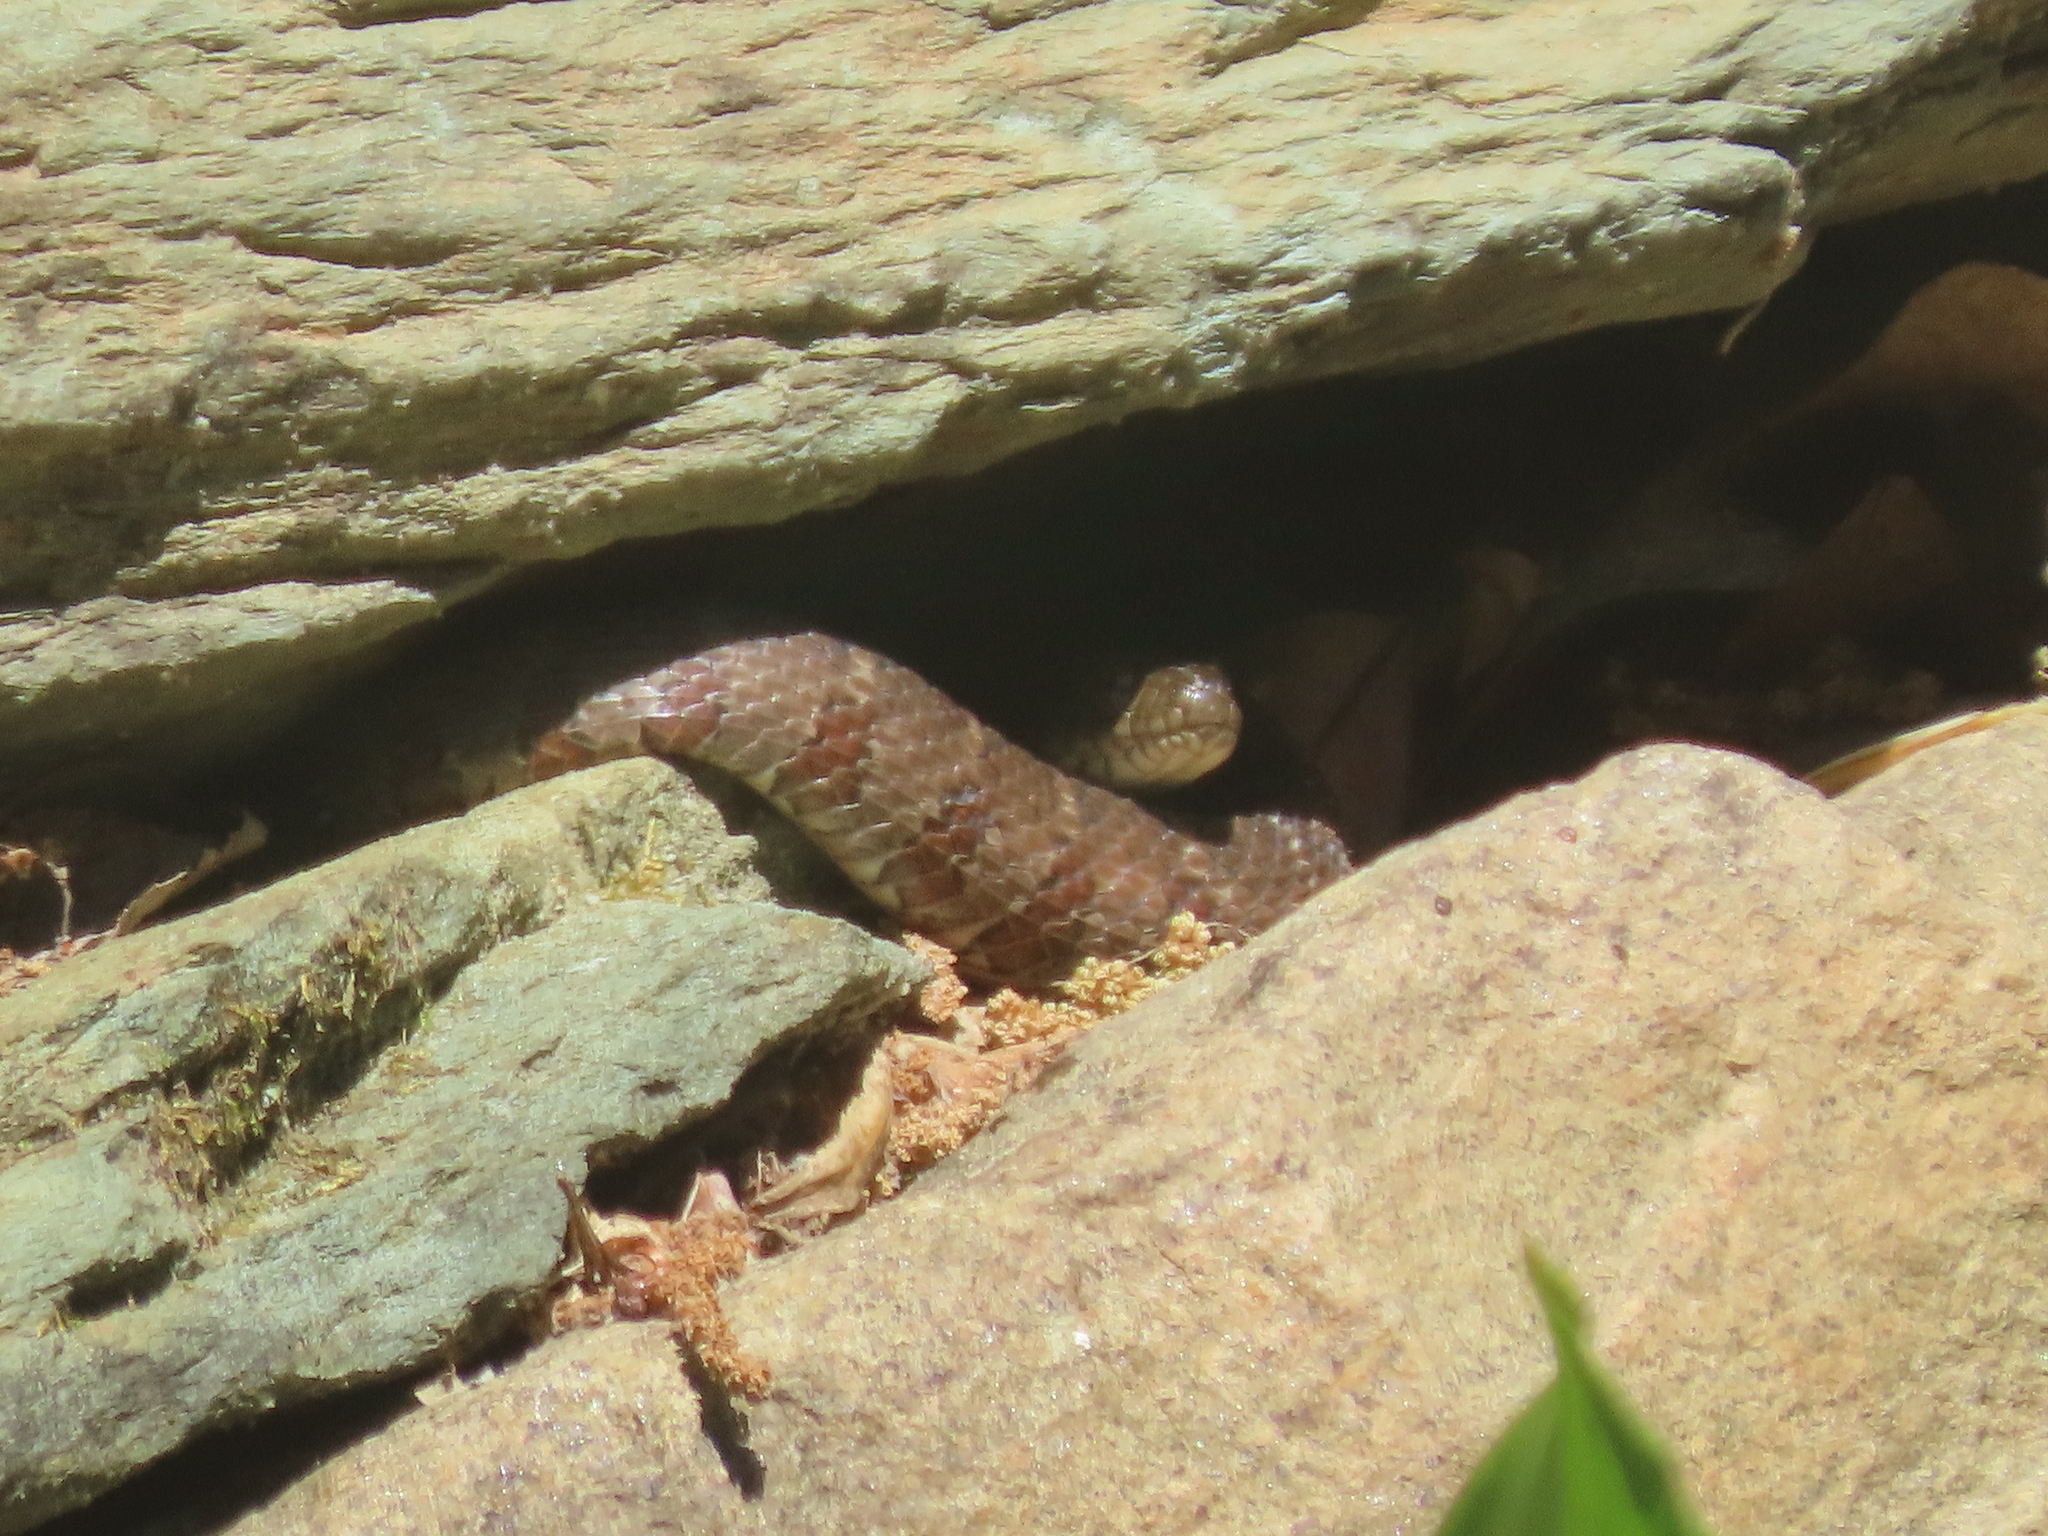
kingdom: Animalia
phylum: Chordata
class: Squamata
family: Colubridae
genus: Nerodia
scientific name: Nerodia sipedon
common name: Northern water snake
